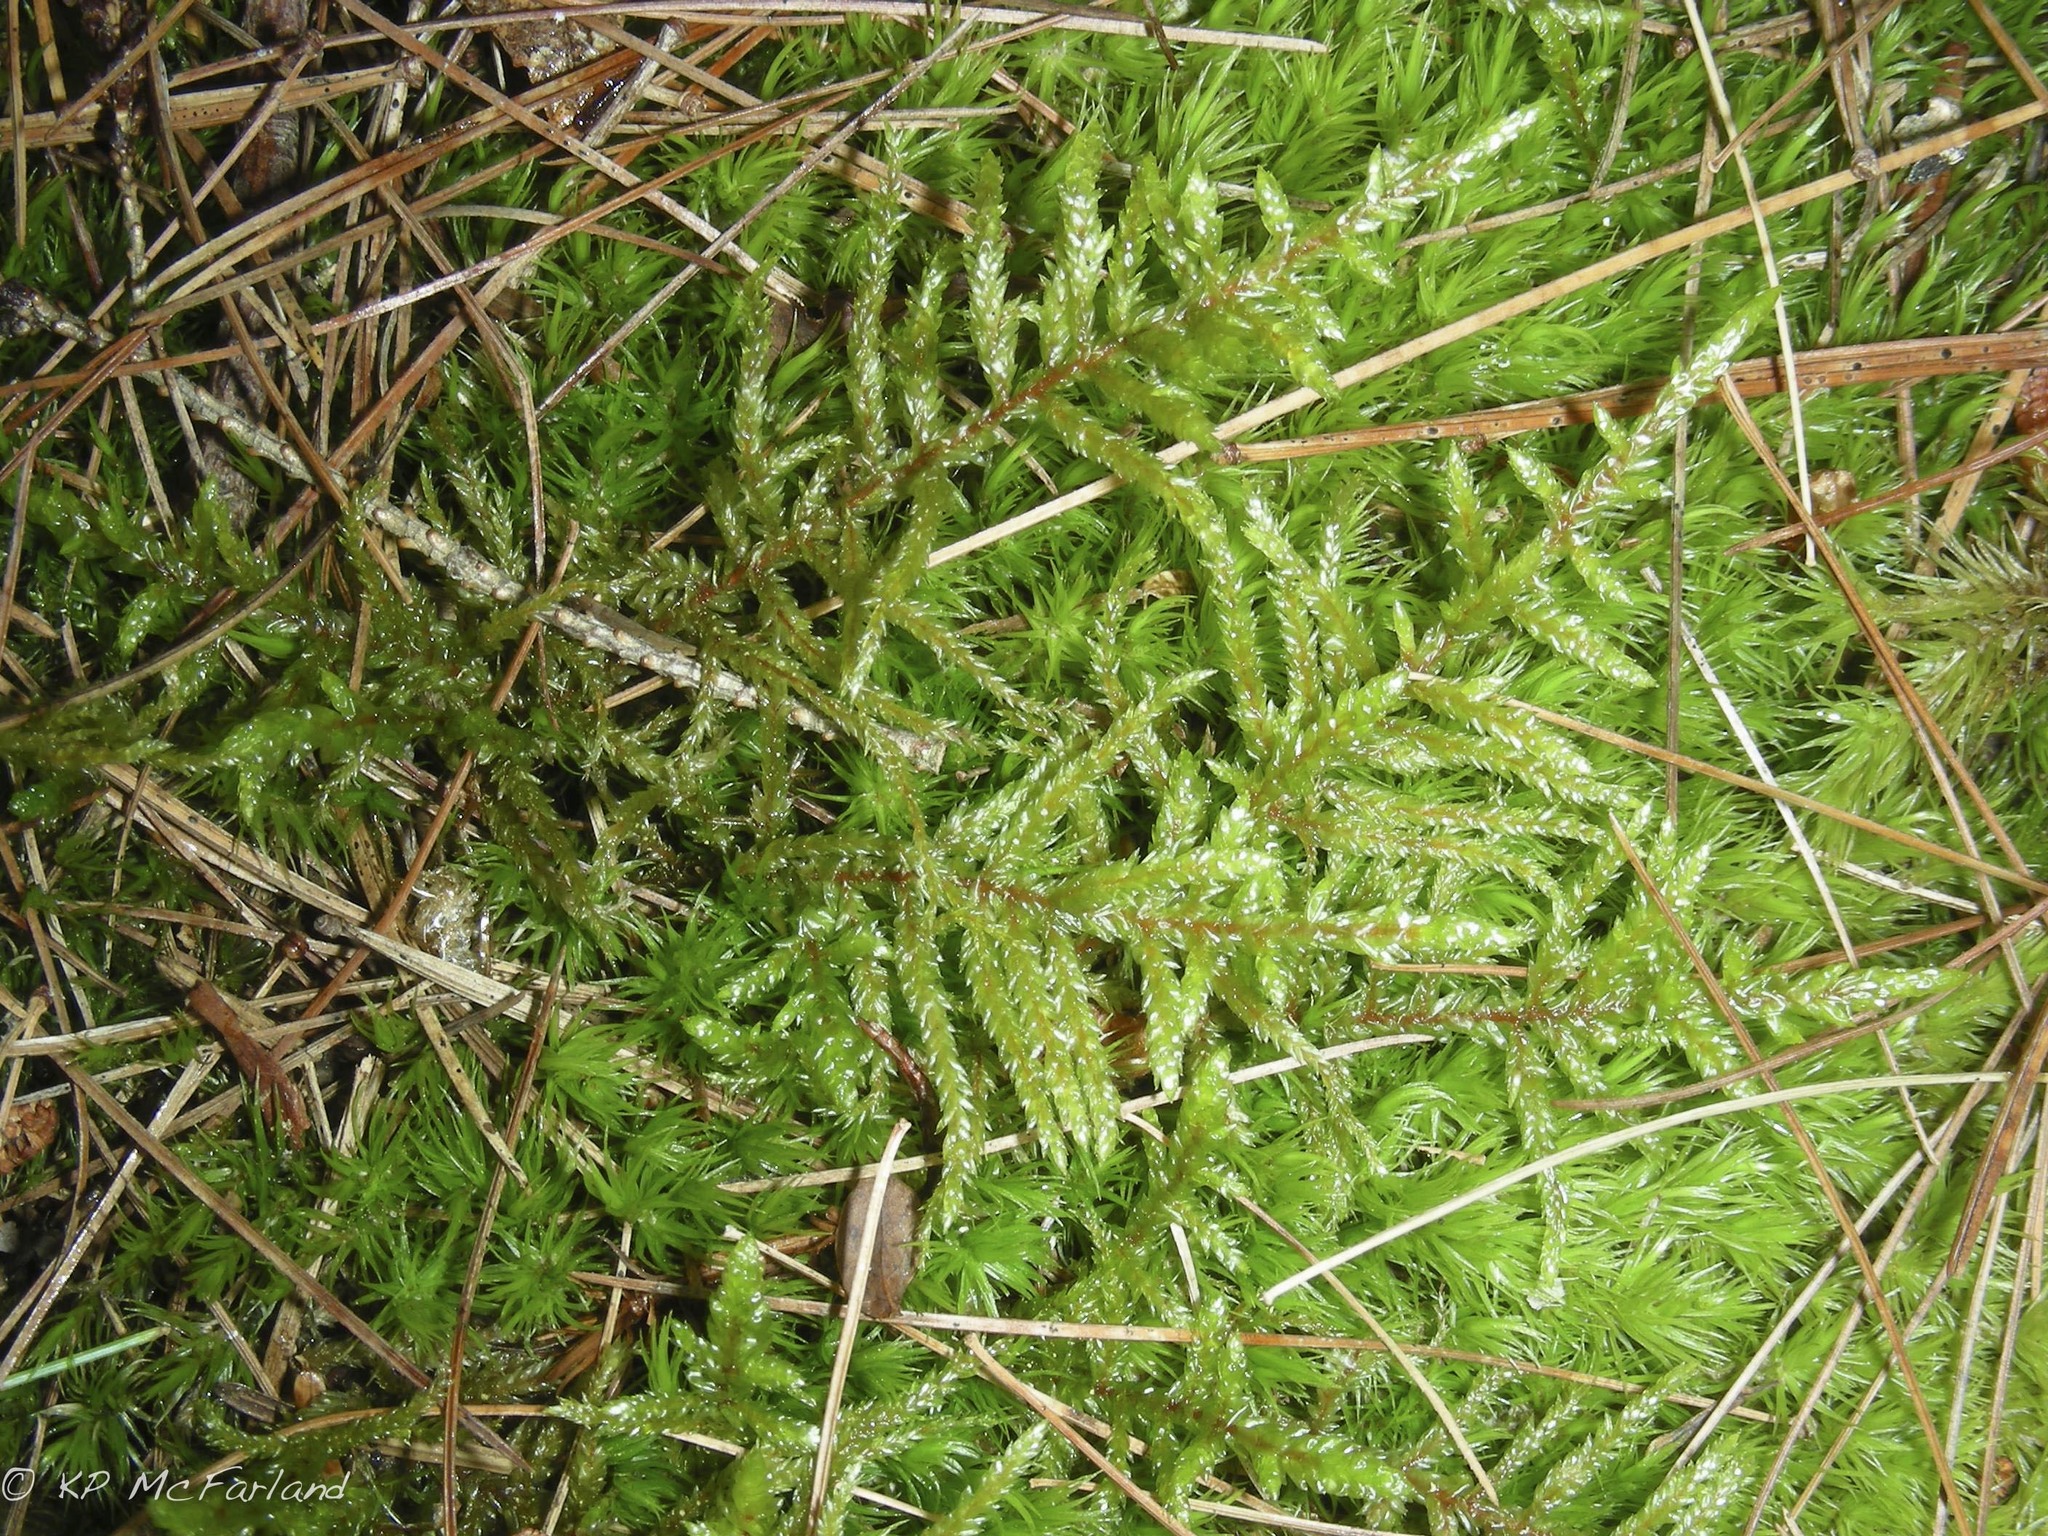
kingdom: Plantae
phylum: Bryophyta
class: Bryopsida
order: Hypnales
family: Hylocomiaceae
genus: Pleurozium
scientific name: Pleurozium schreberi
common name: Red-stemmed feather moss
